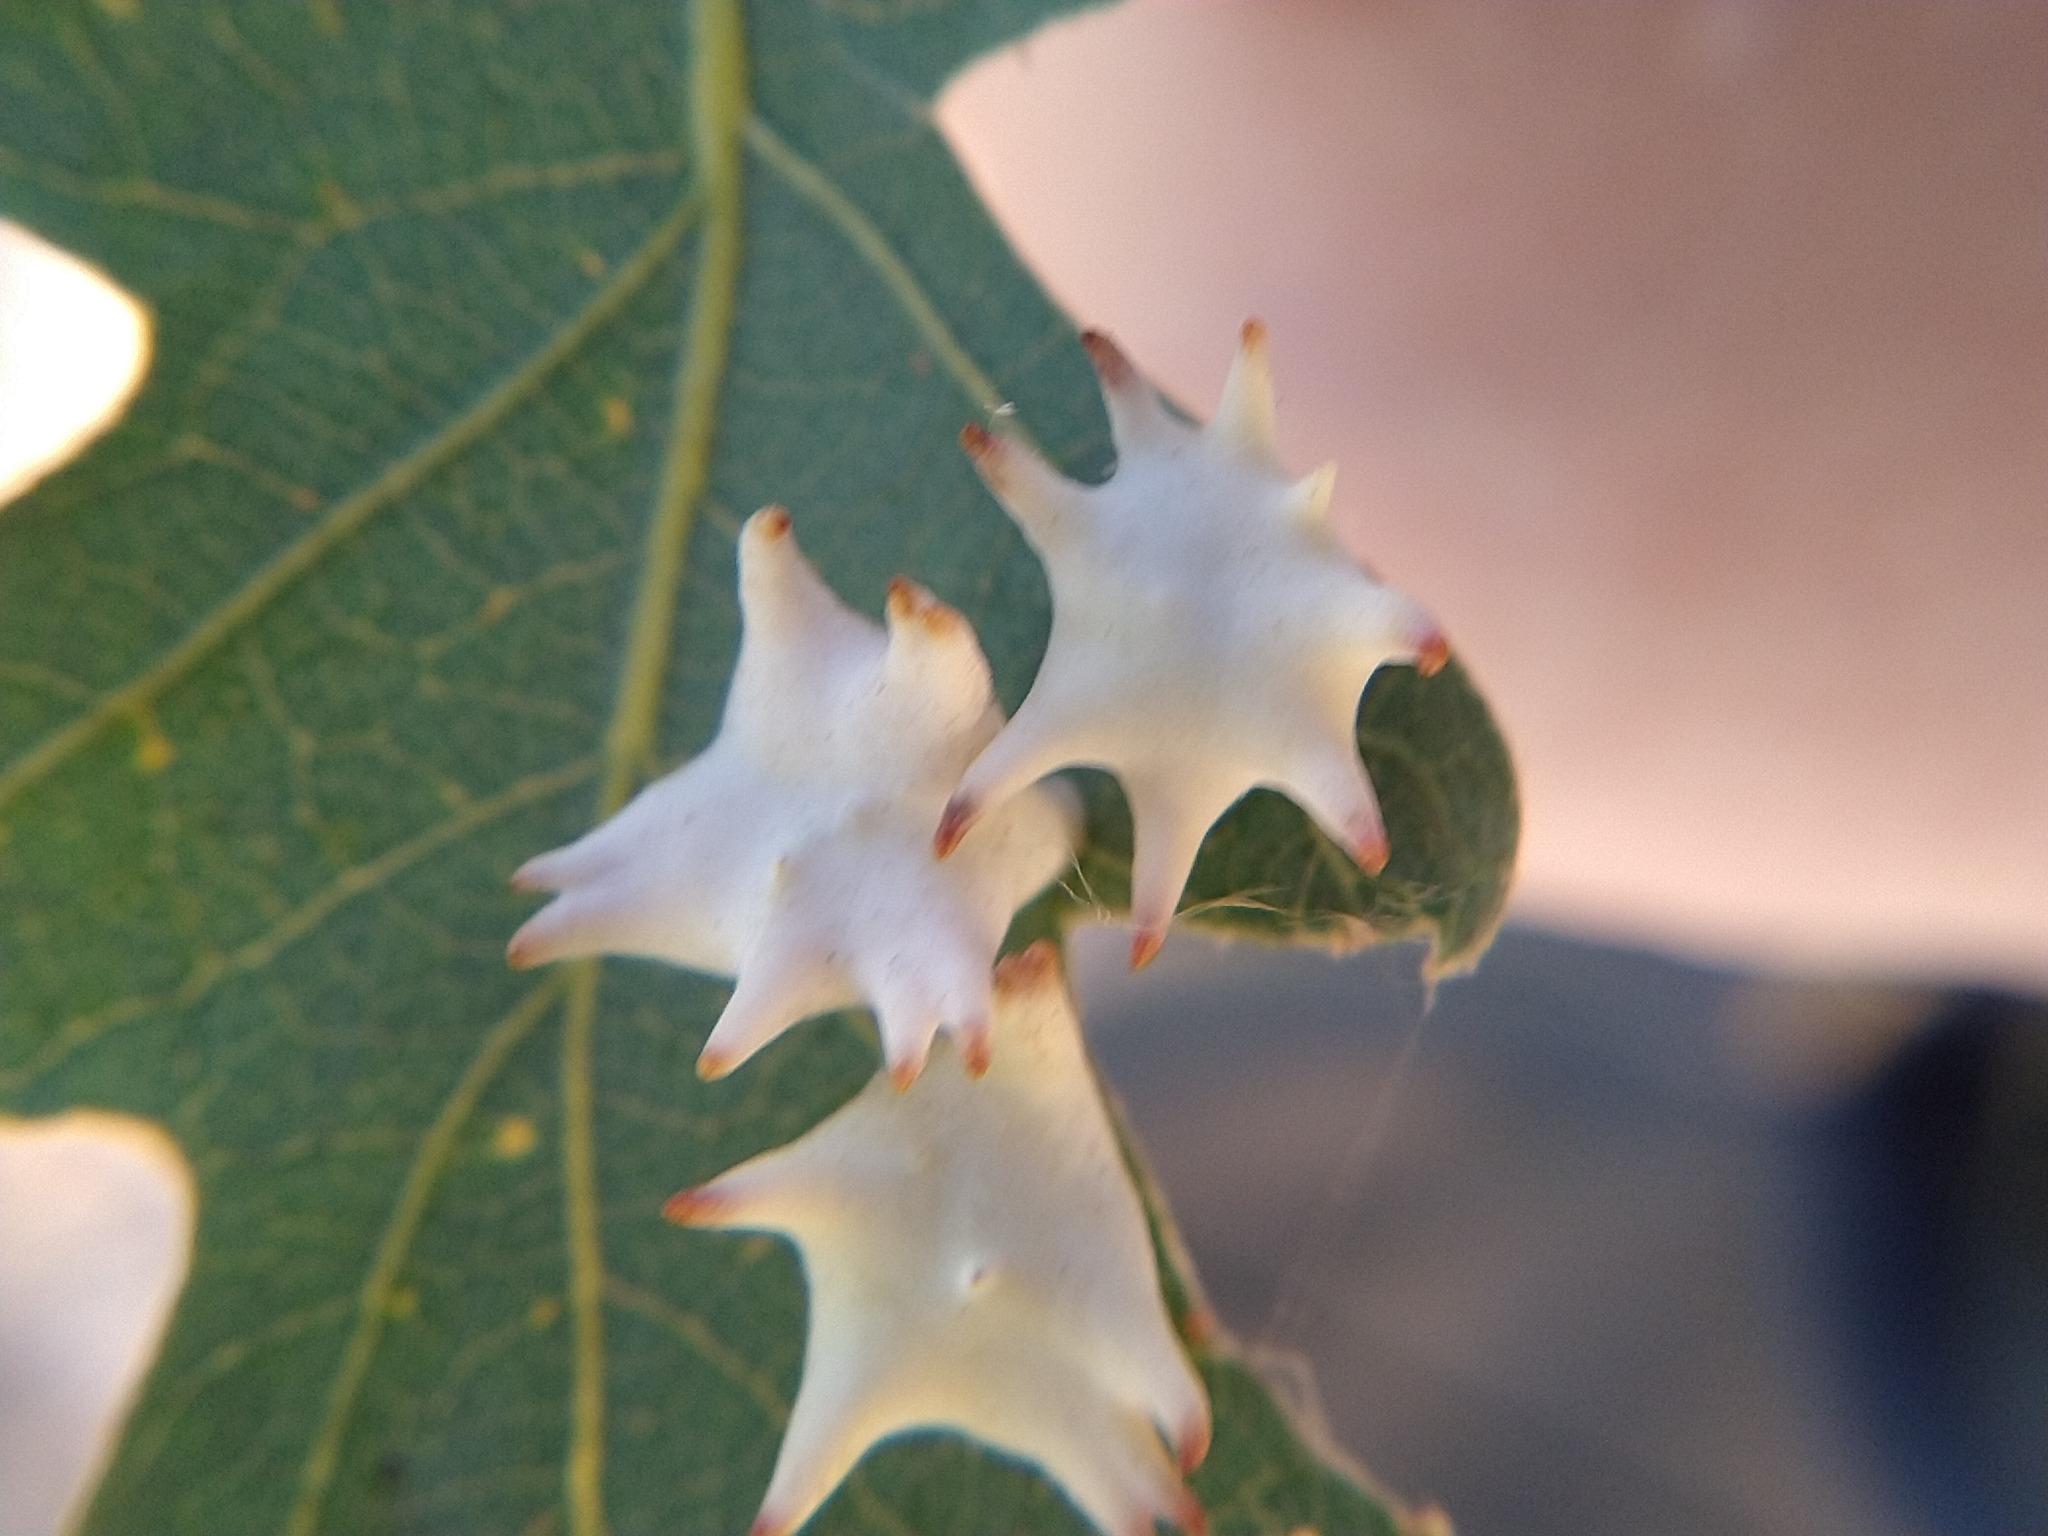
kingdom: Animalia
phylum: Arthropoda
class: Insecta
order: Hymenoptera
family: Cynipidae
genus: Cynips
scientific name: Cynips douglasi
